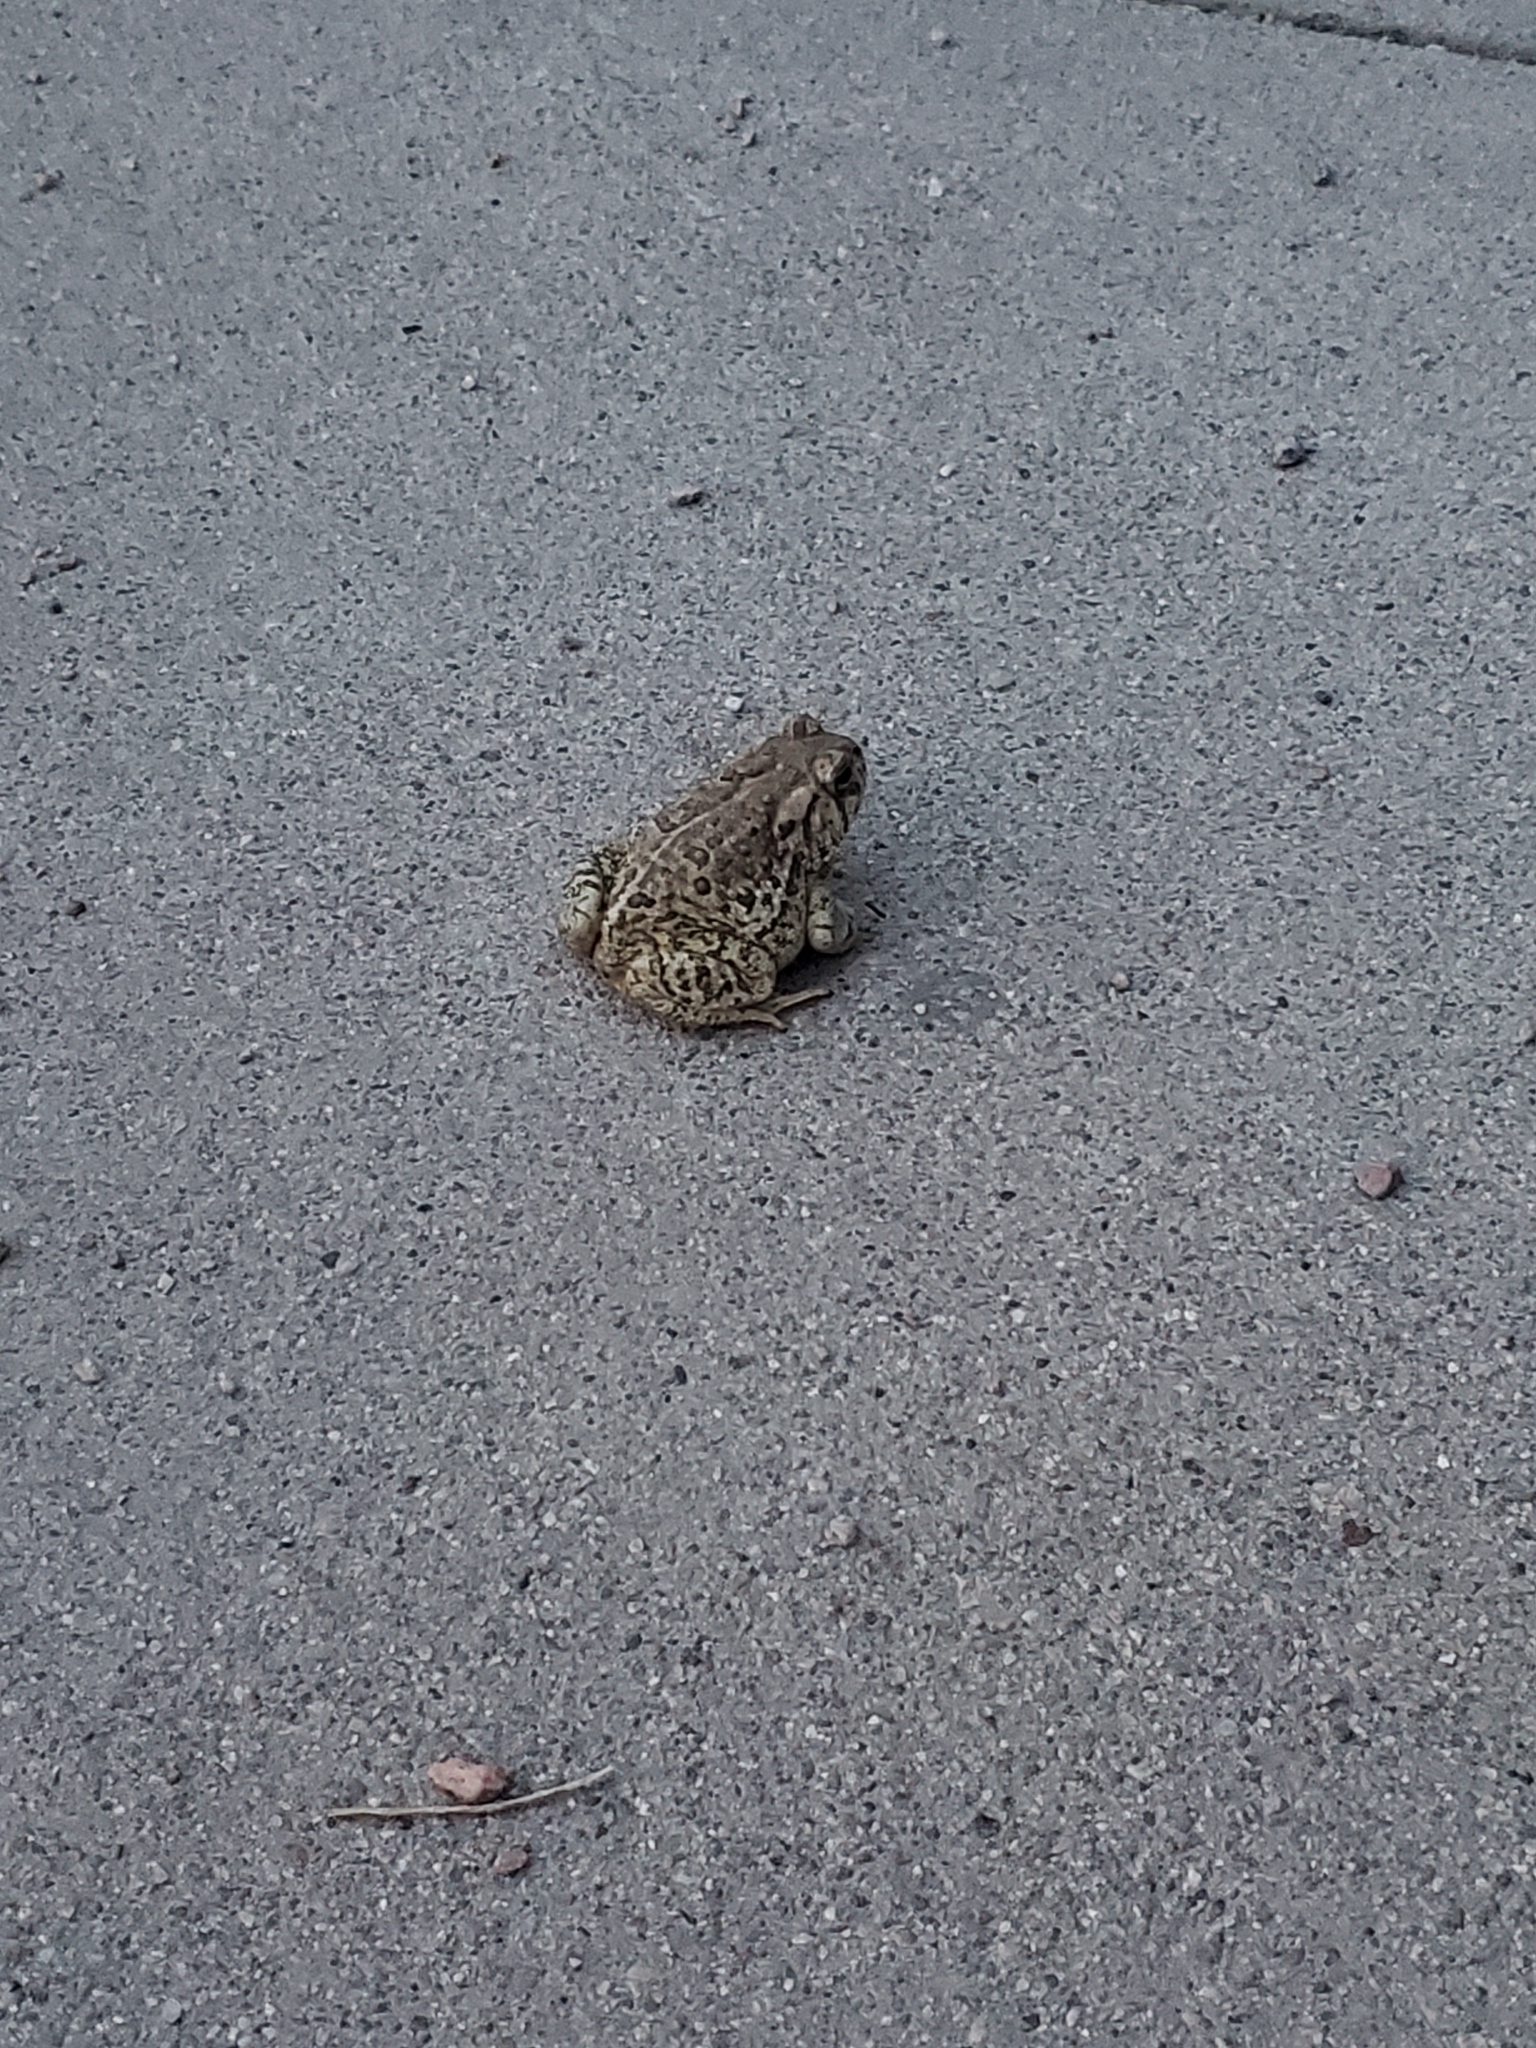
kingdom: Animalia
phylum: Chordata
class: Amphibia
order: Anura
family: Bufonidae
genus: Anaxyrus
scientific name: Anaxyrus woodhousii
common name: Woodhouse's toad
